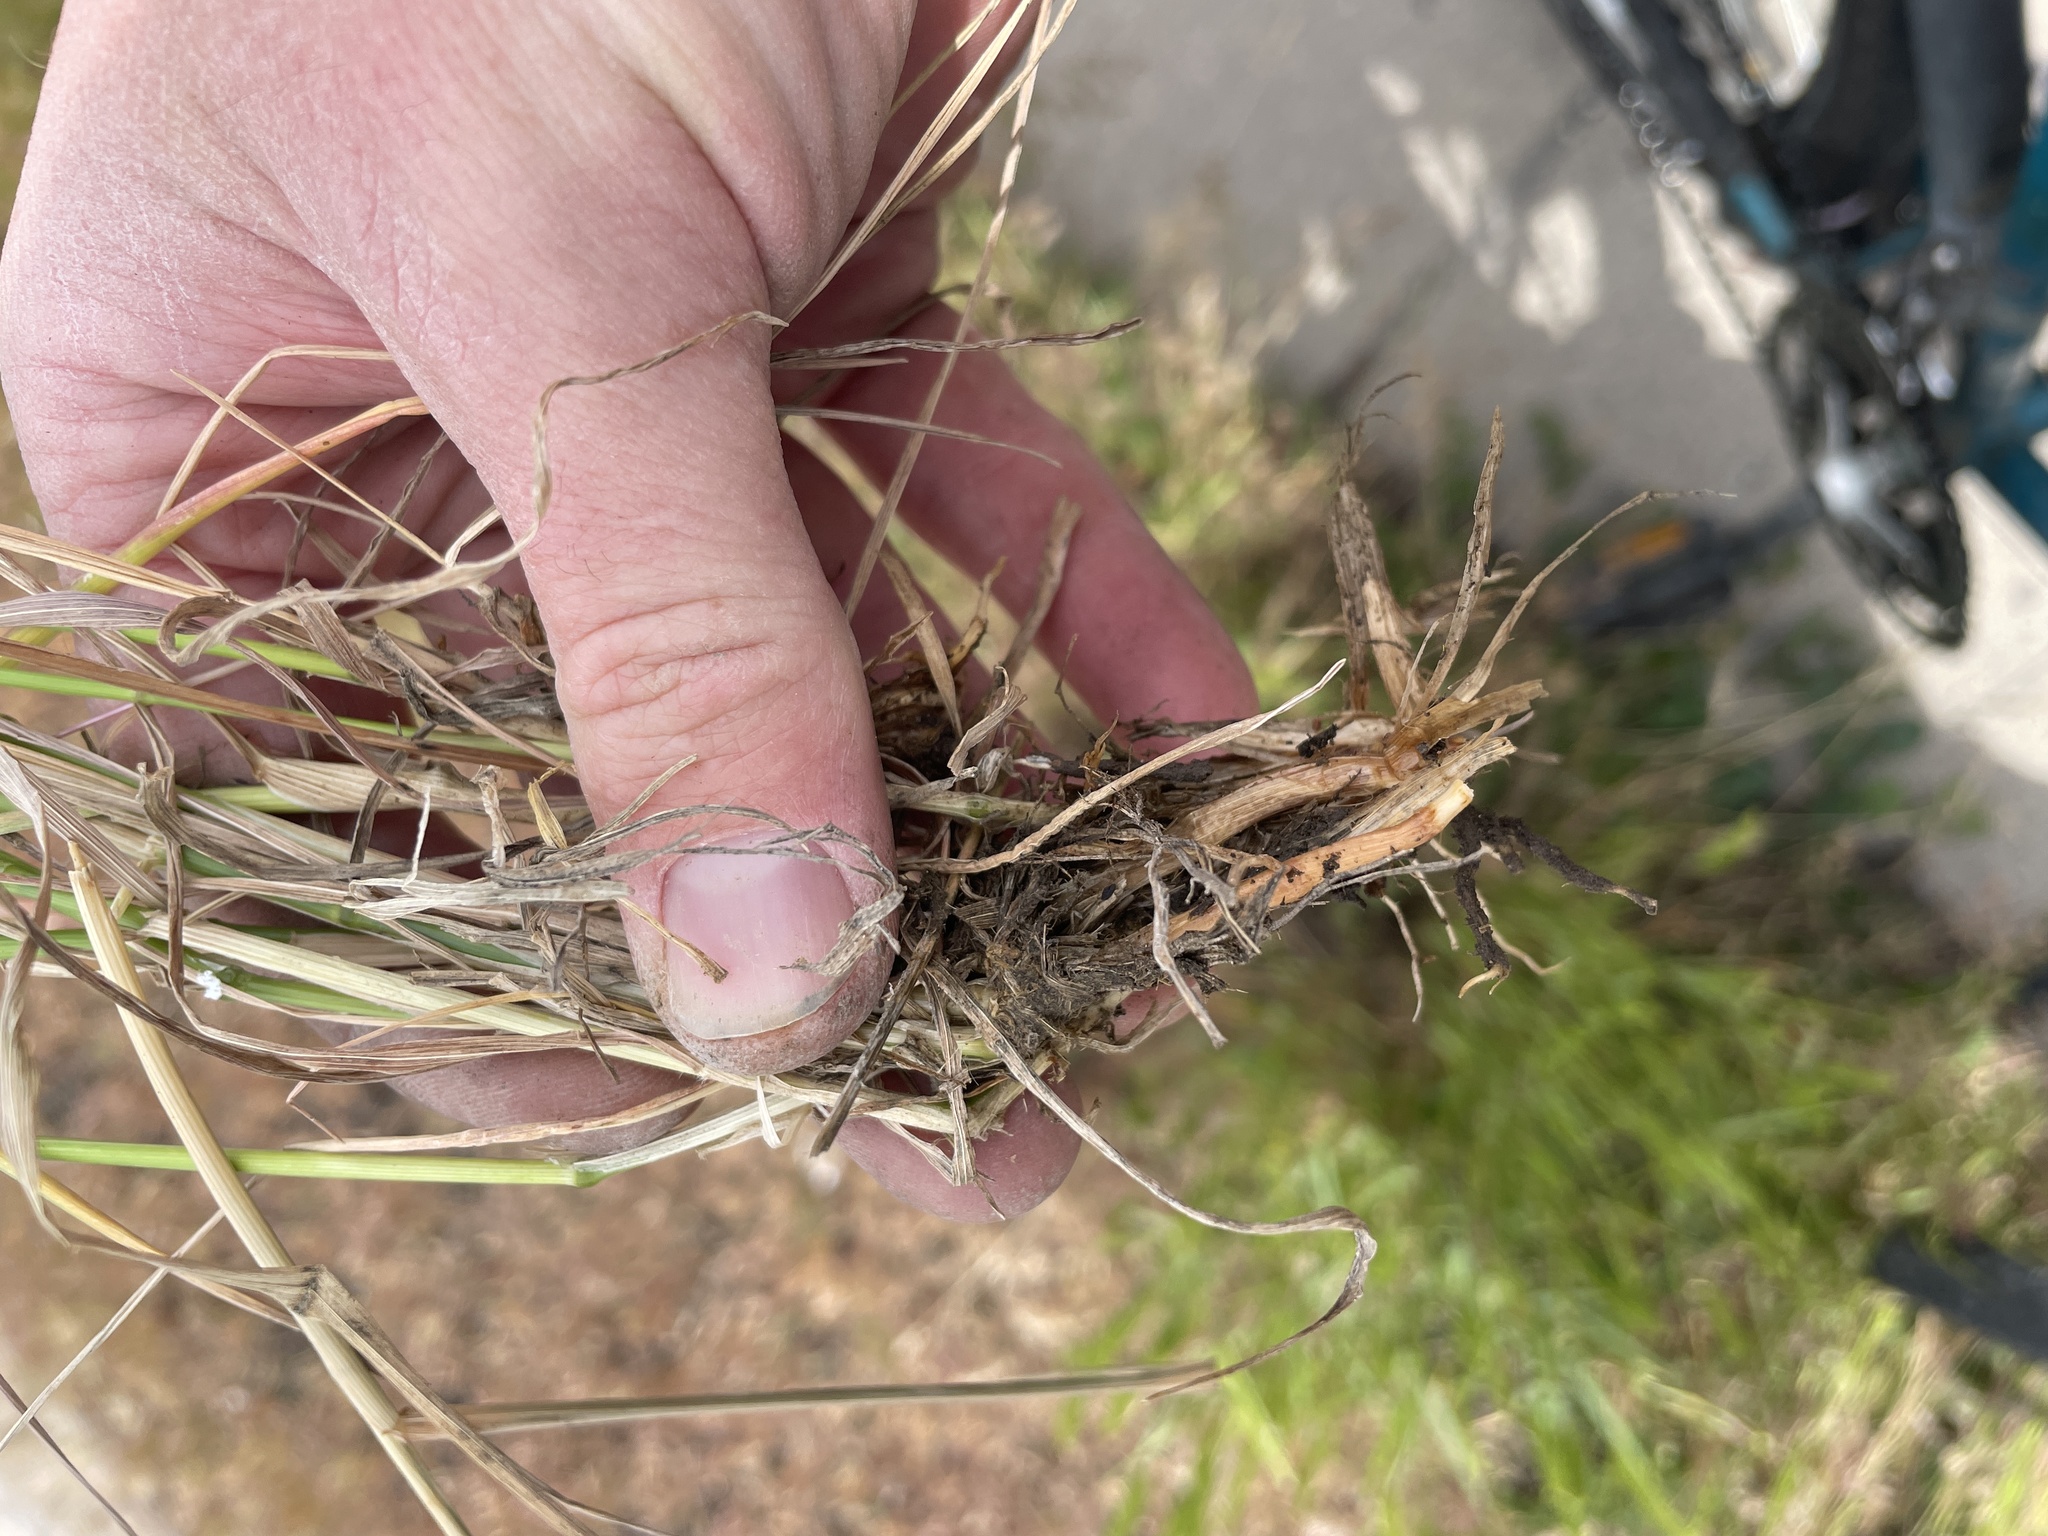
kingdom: Plantae
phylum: Tracheophyta
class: Liliopsida
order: Poales
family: Poaceae
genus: Agropyron
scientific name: Agropyron cristatum
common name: Crested wheatgrass
